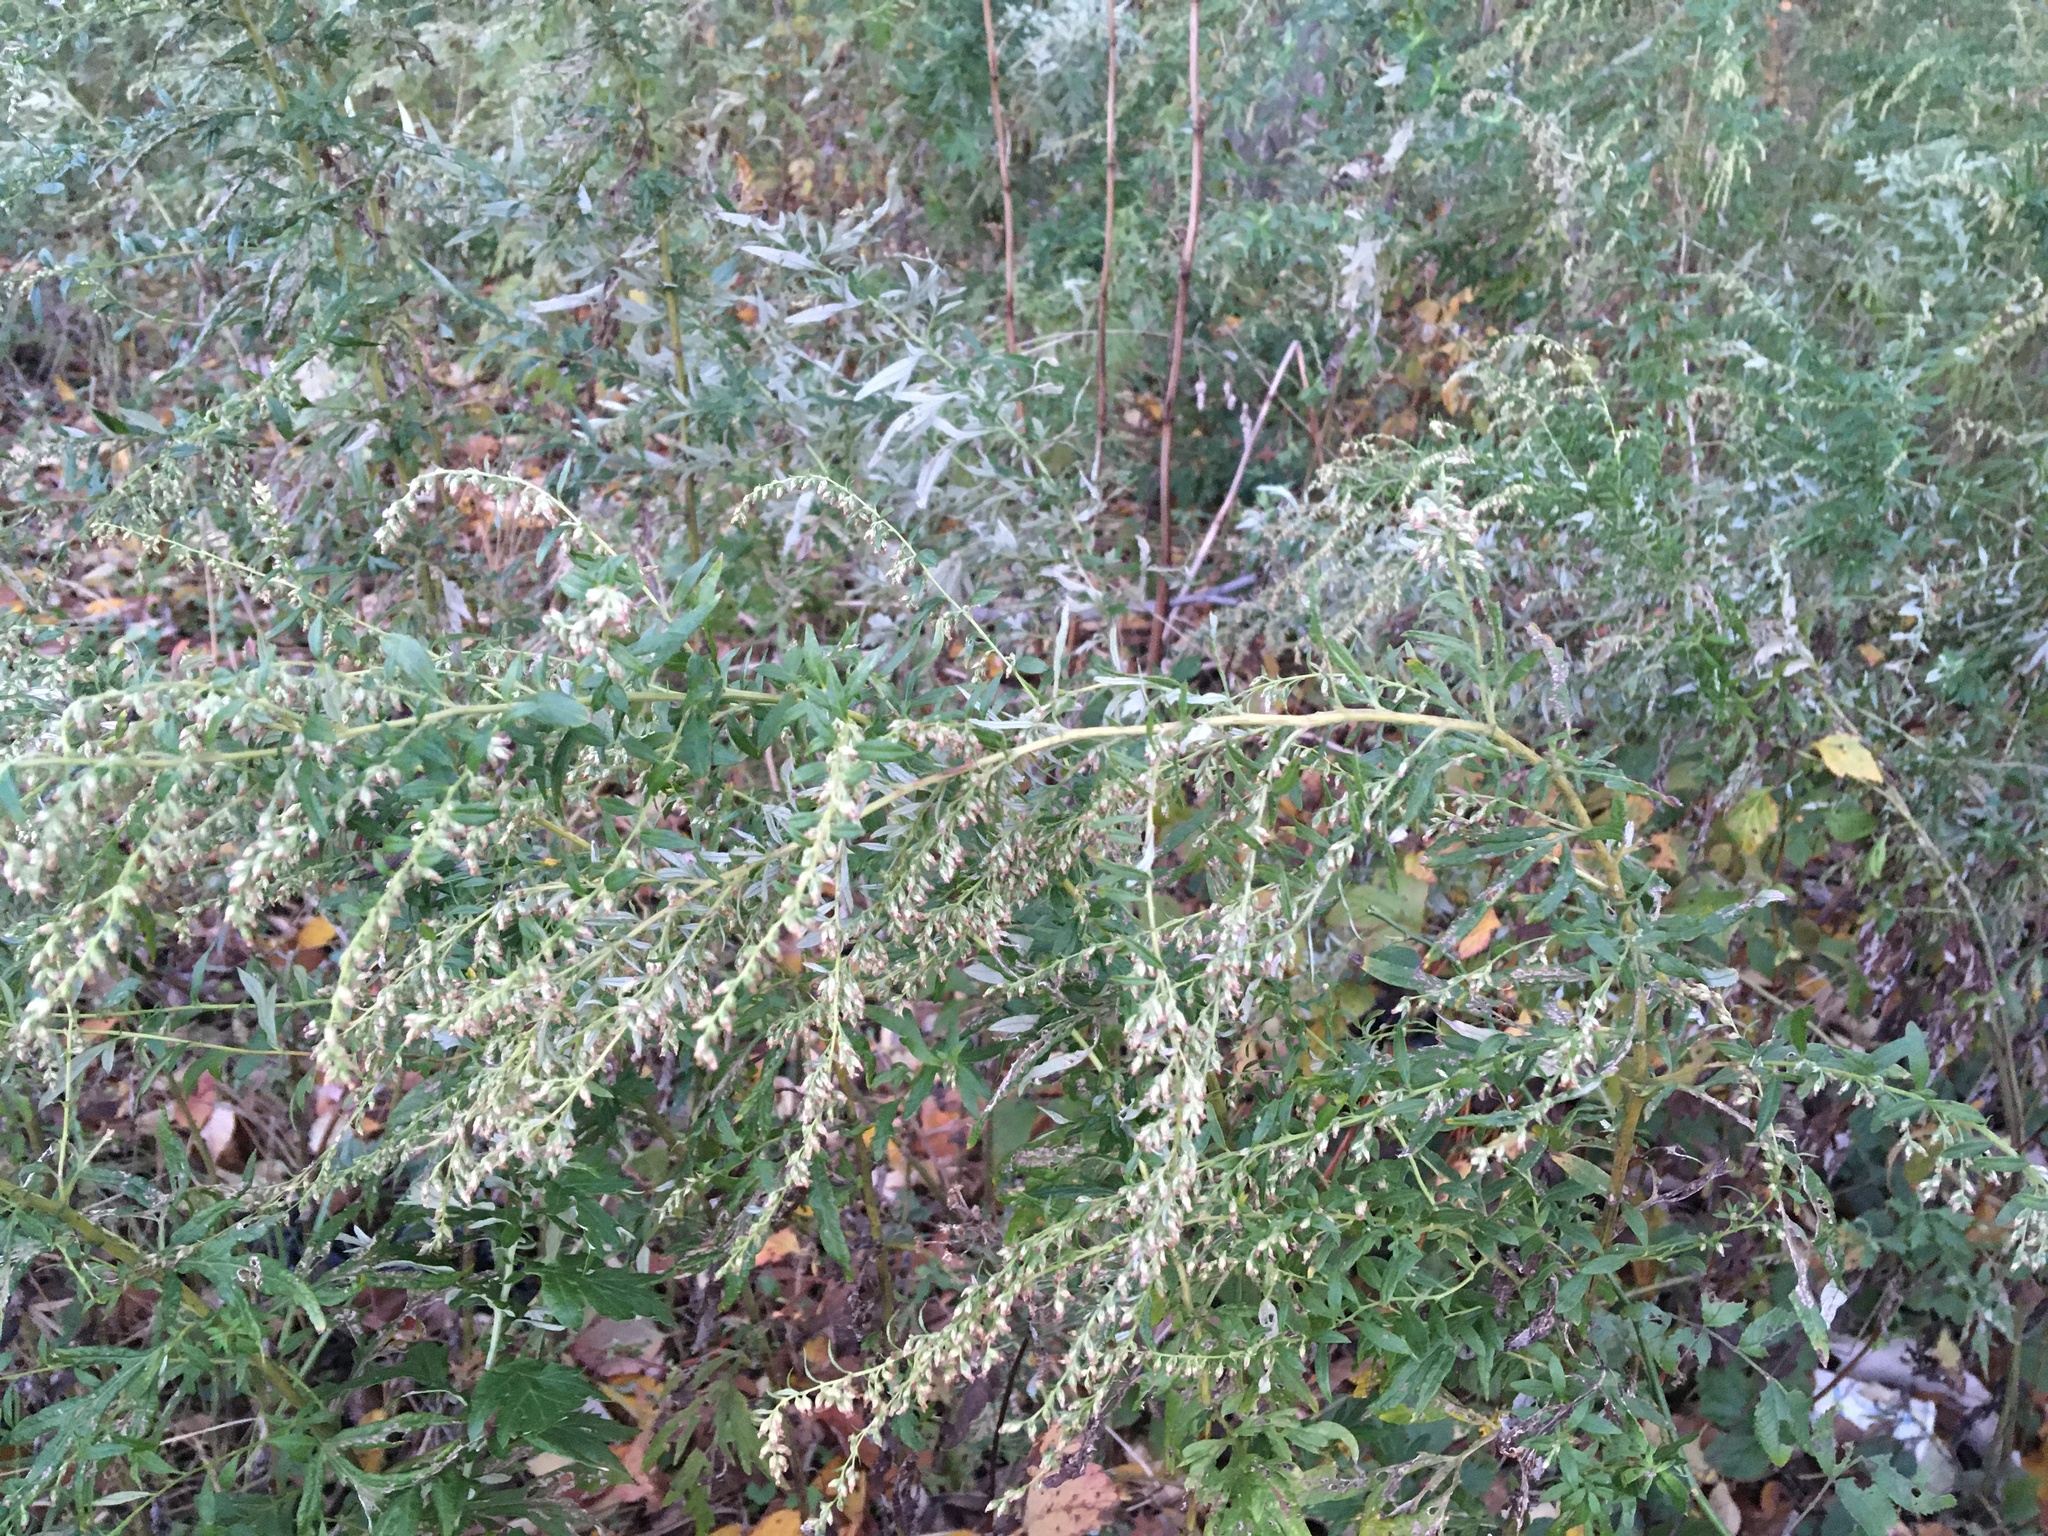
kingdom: Plantae
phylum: Tracheophyta
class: Magnoliopsida
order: Asterales
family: Asteraceae
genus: Artemisia
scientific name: Artemisia vulgaris
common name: Mugwort
